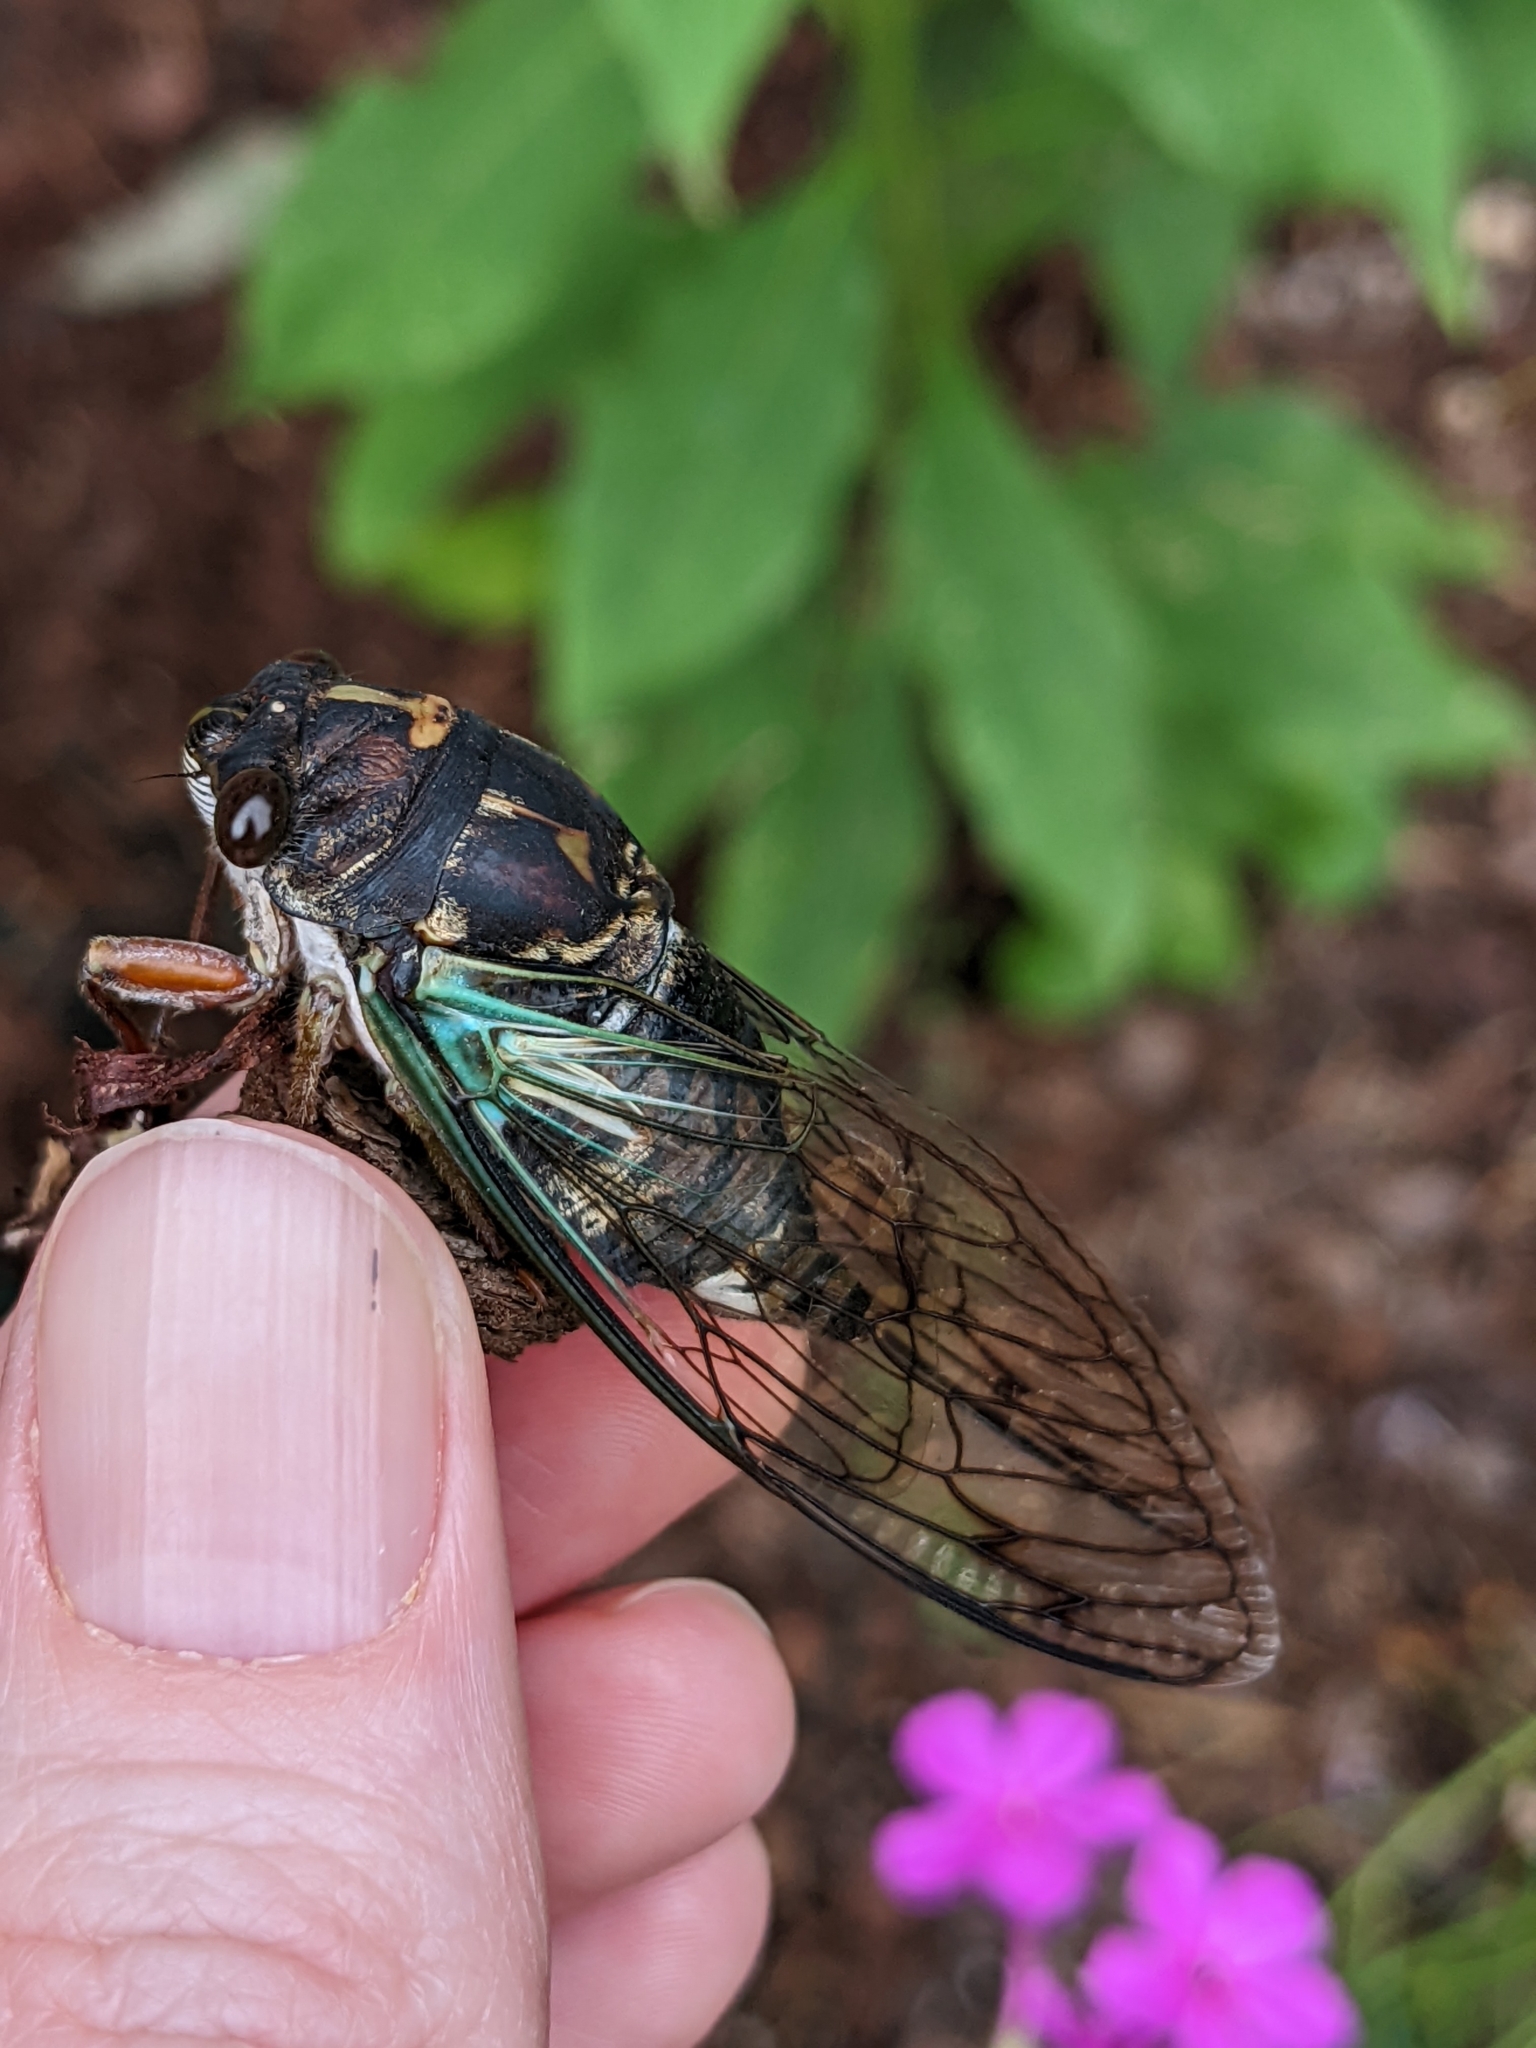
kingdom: Animalia
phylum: Arthropoda
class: Insecta
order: Hemiptera
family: Cicadidae
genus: Neotibicen
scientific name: Neotibicen lyricen
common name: Lyric cicada
